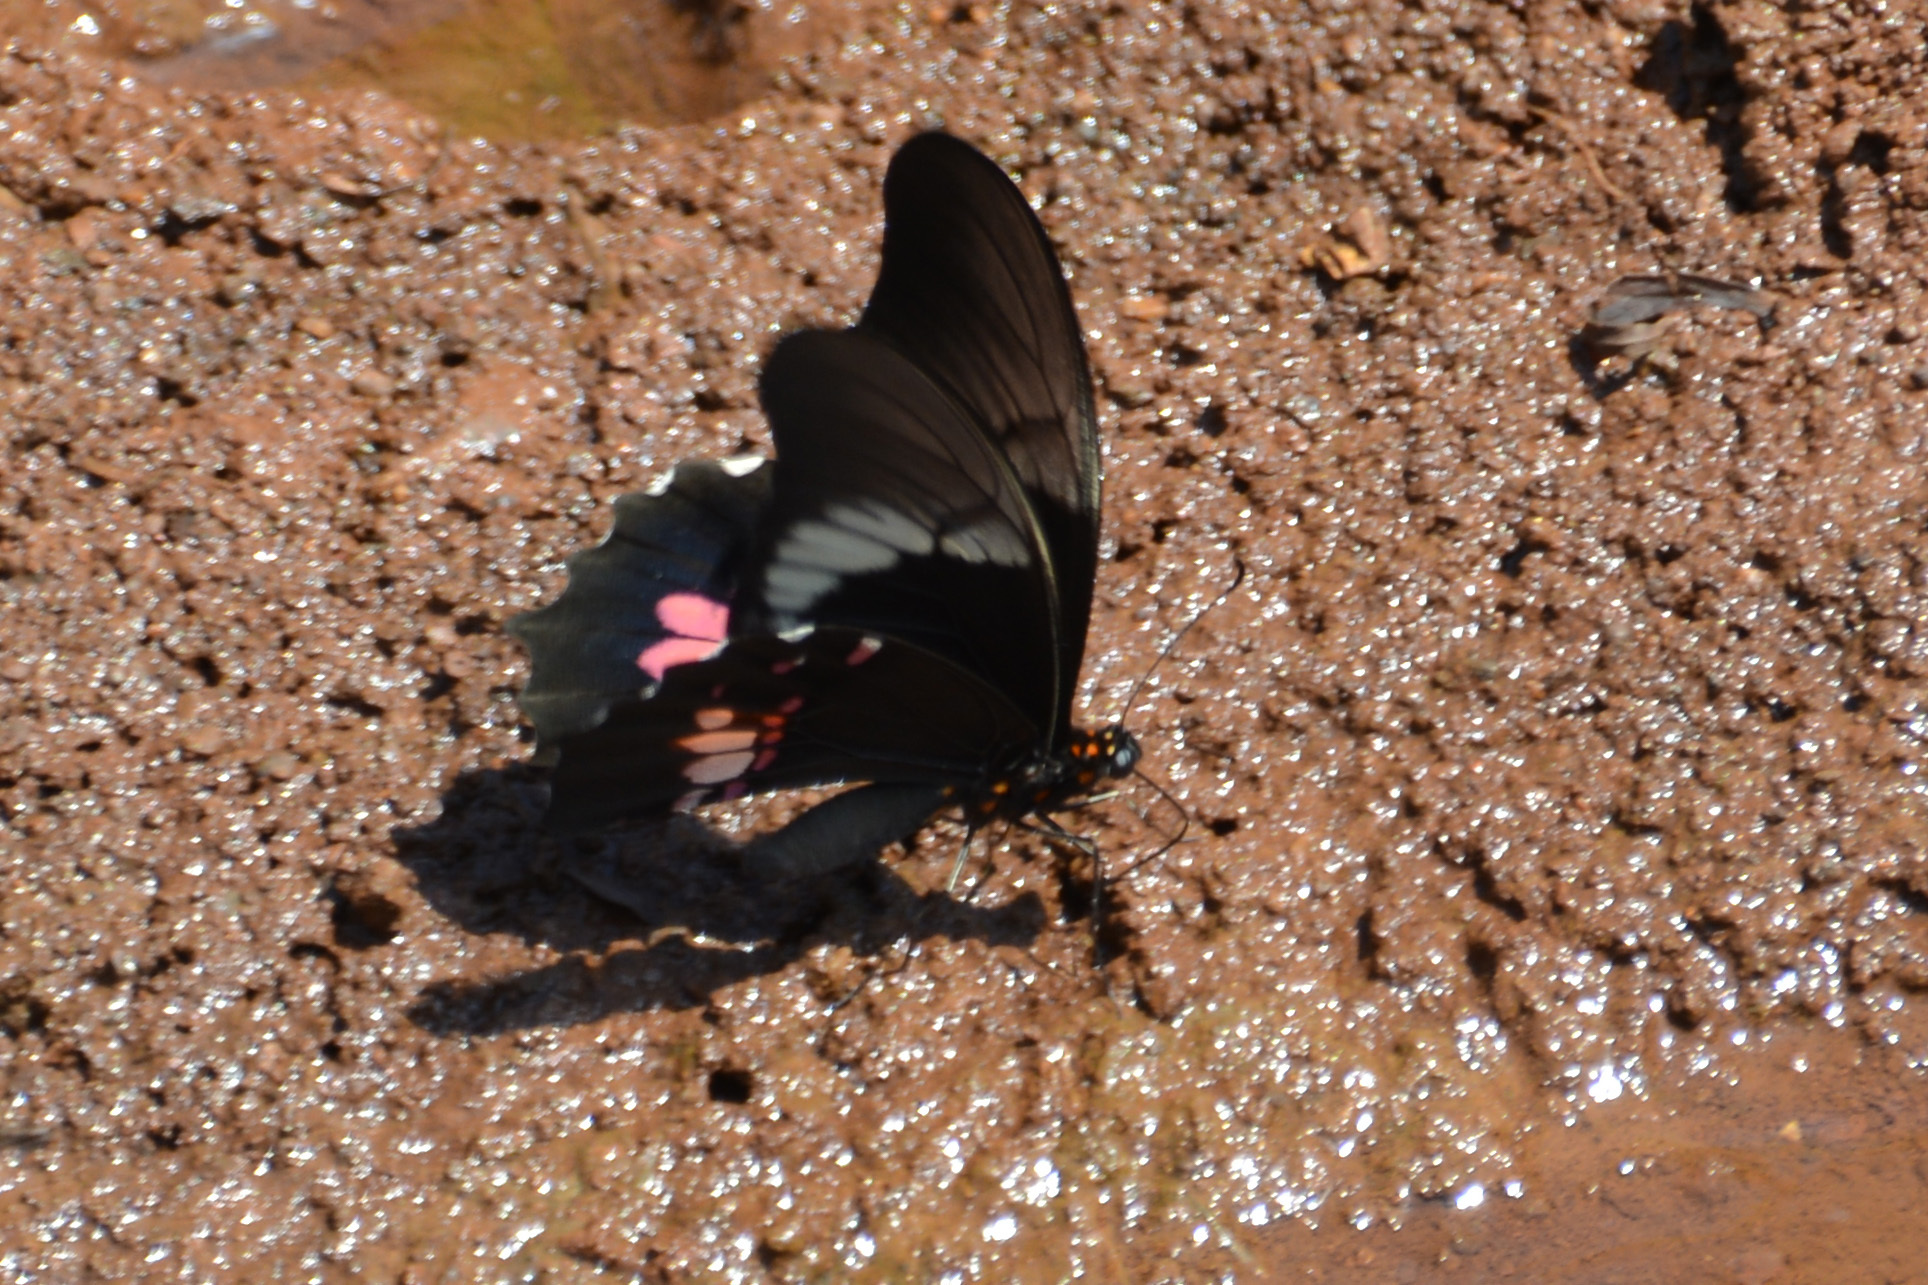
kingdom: Animalia
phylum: Arthropoda
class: Insecta
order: Lepidoptera
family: Papilionidae
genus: Papilio
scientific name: Papilio anchisiades
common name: Idaes swallowtail
